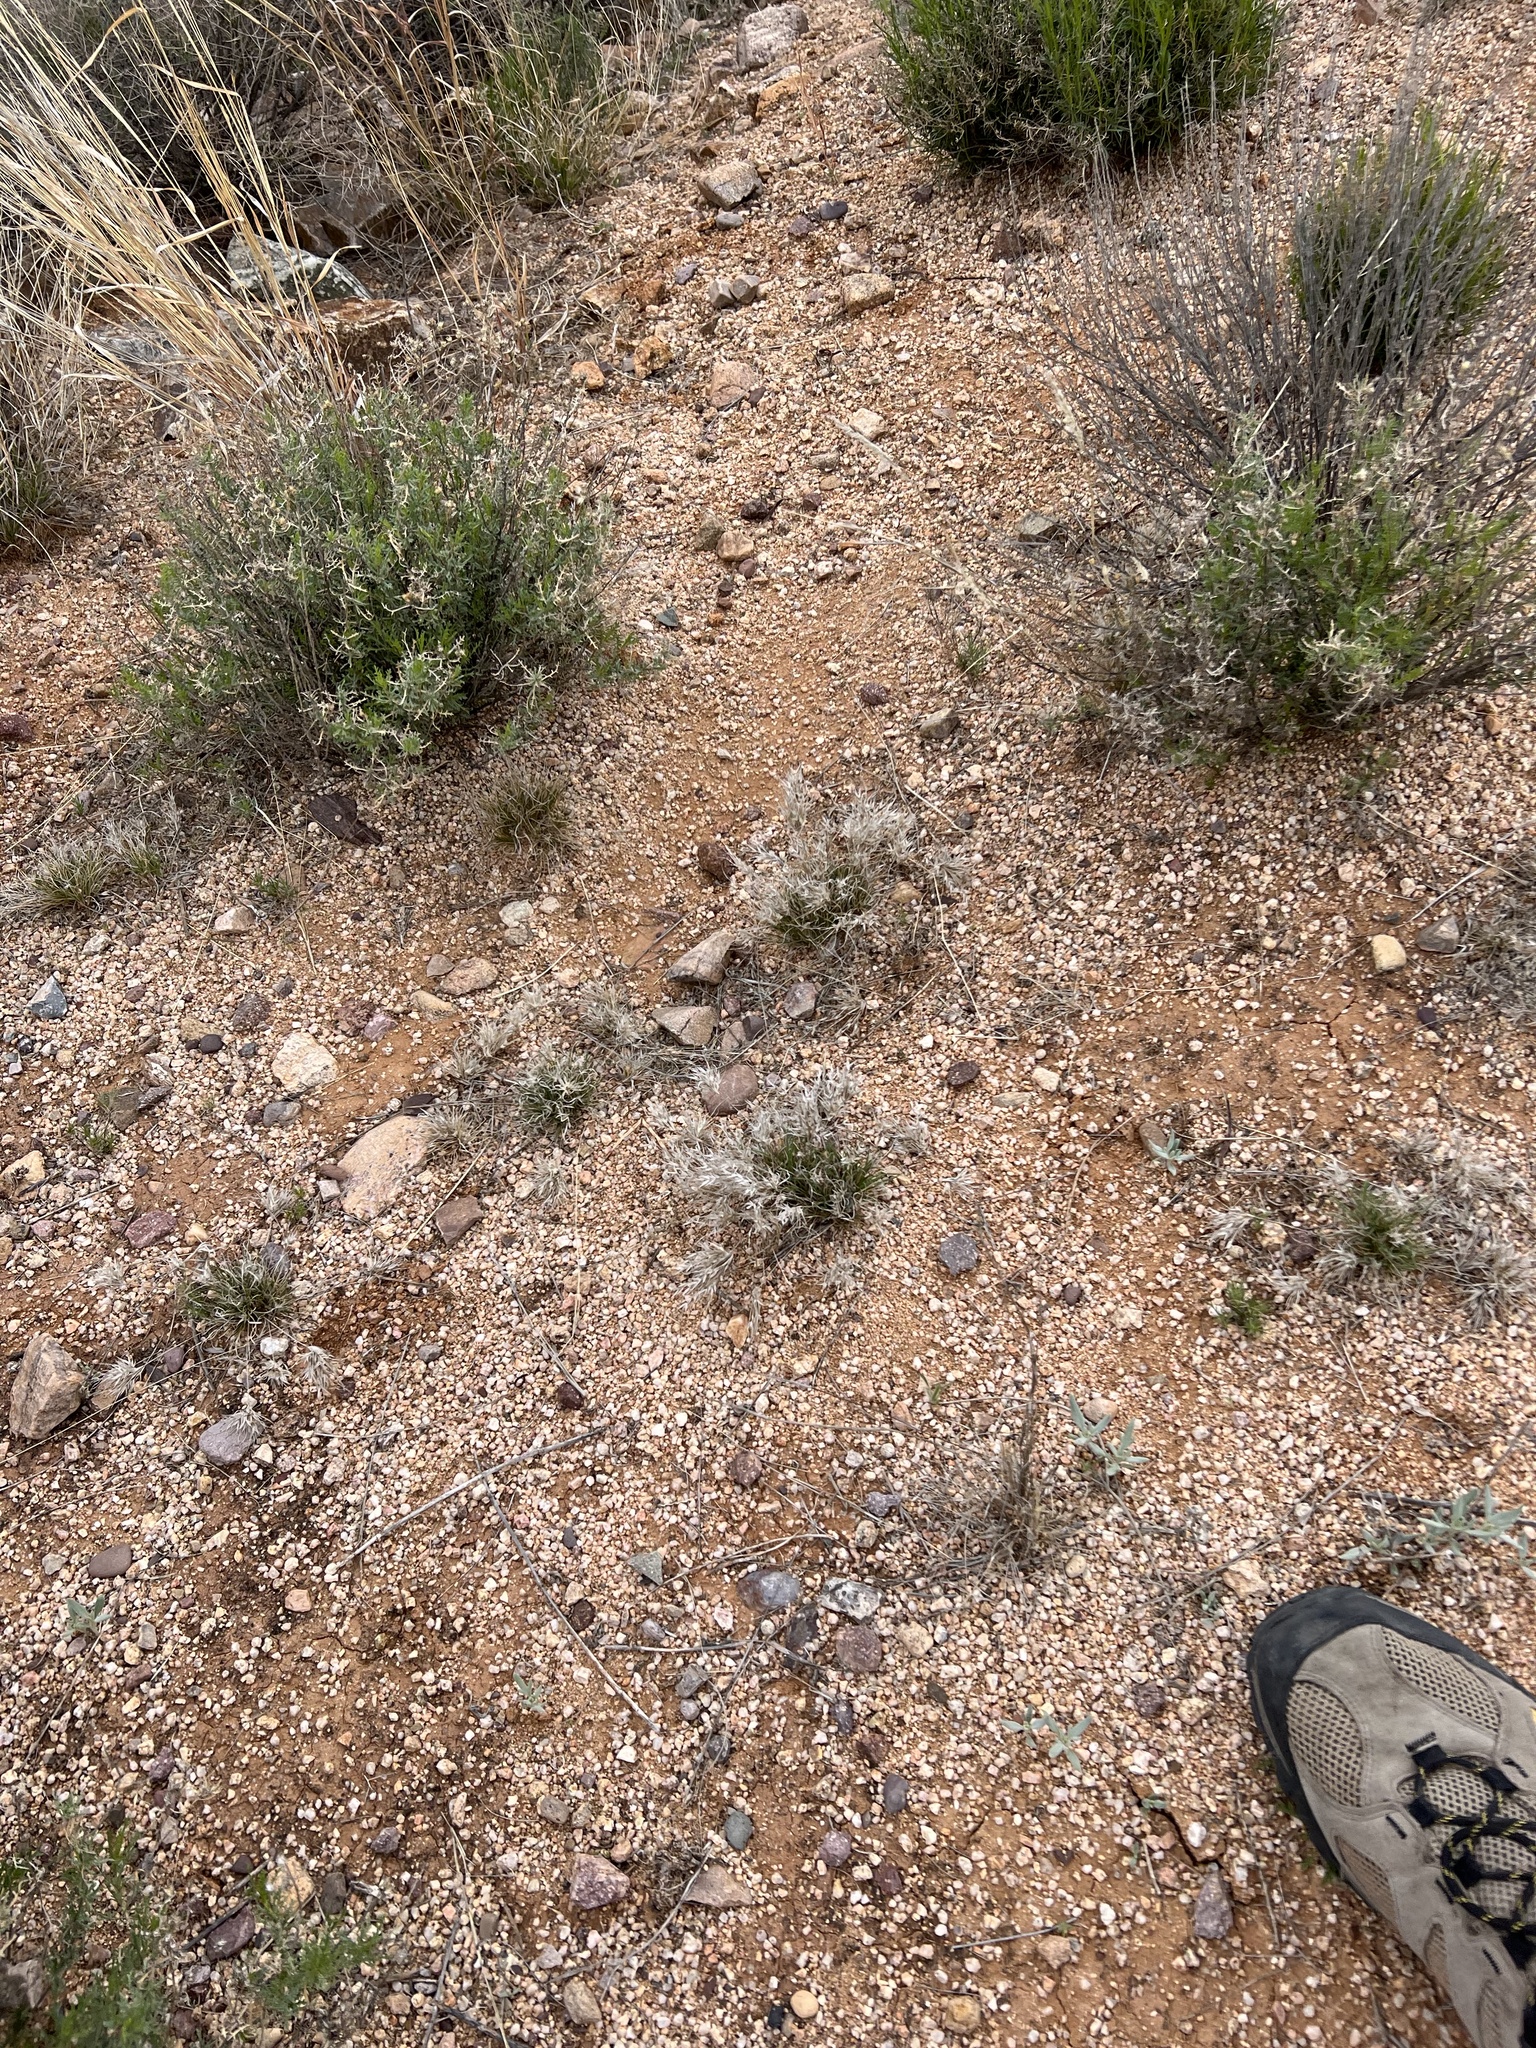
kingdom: Plantae
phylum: Tracheophyta
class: Liliopsida
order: Poales
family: Poaceae
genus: Dasyochloa
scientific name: Dasyochloa pulchella
